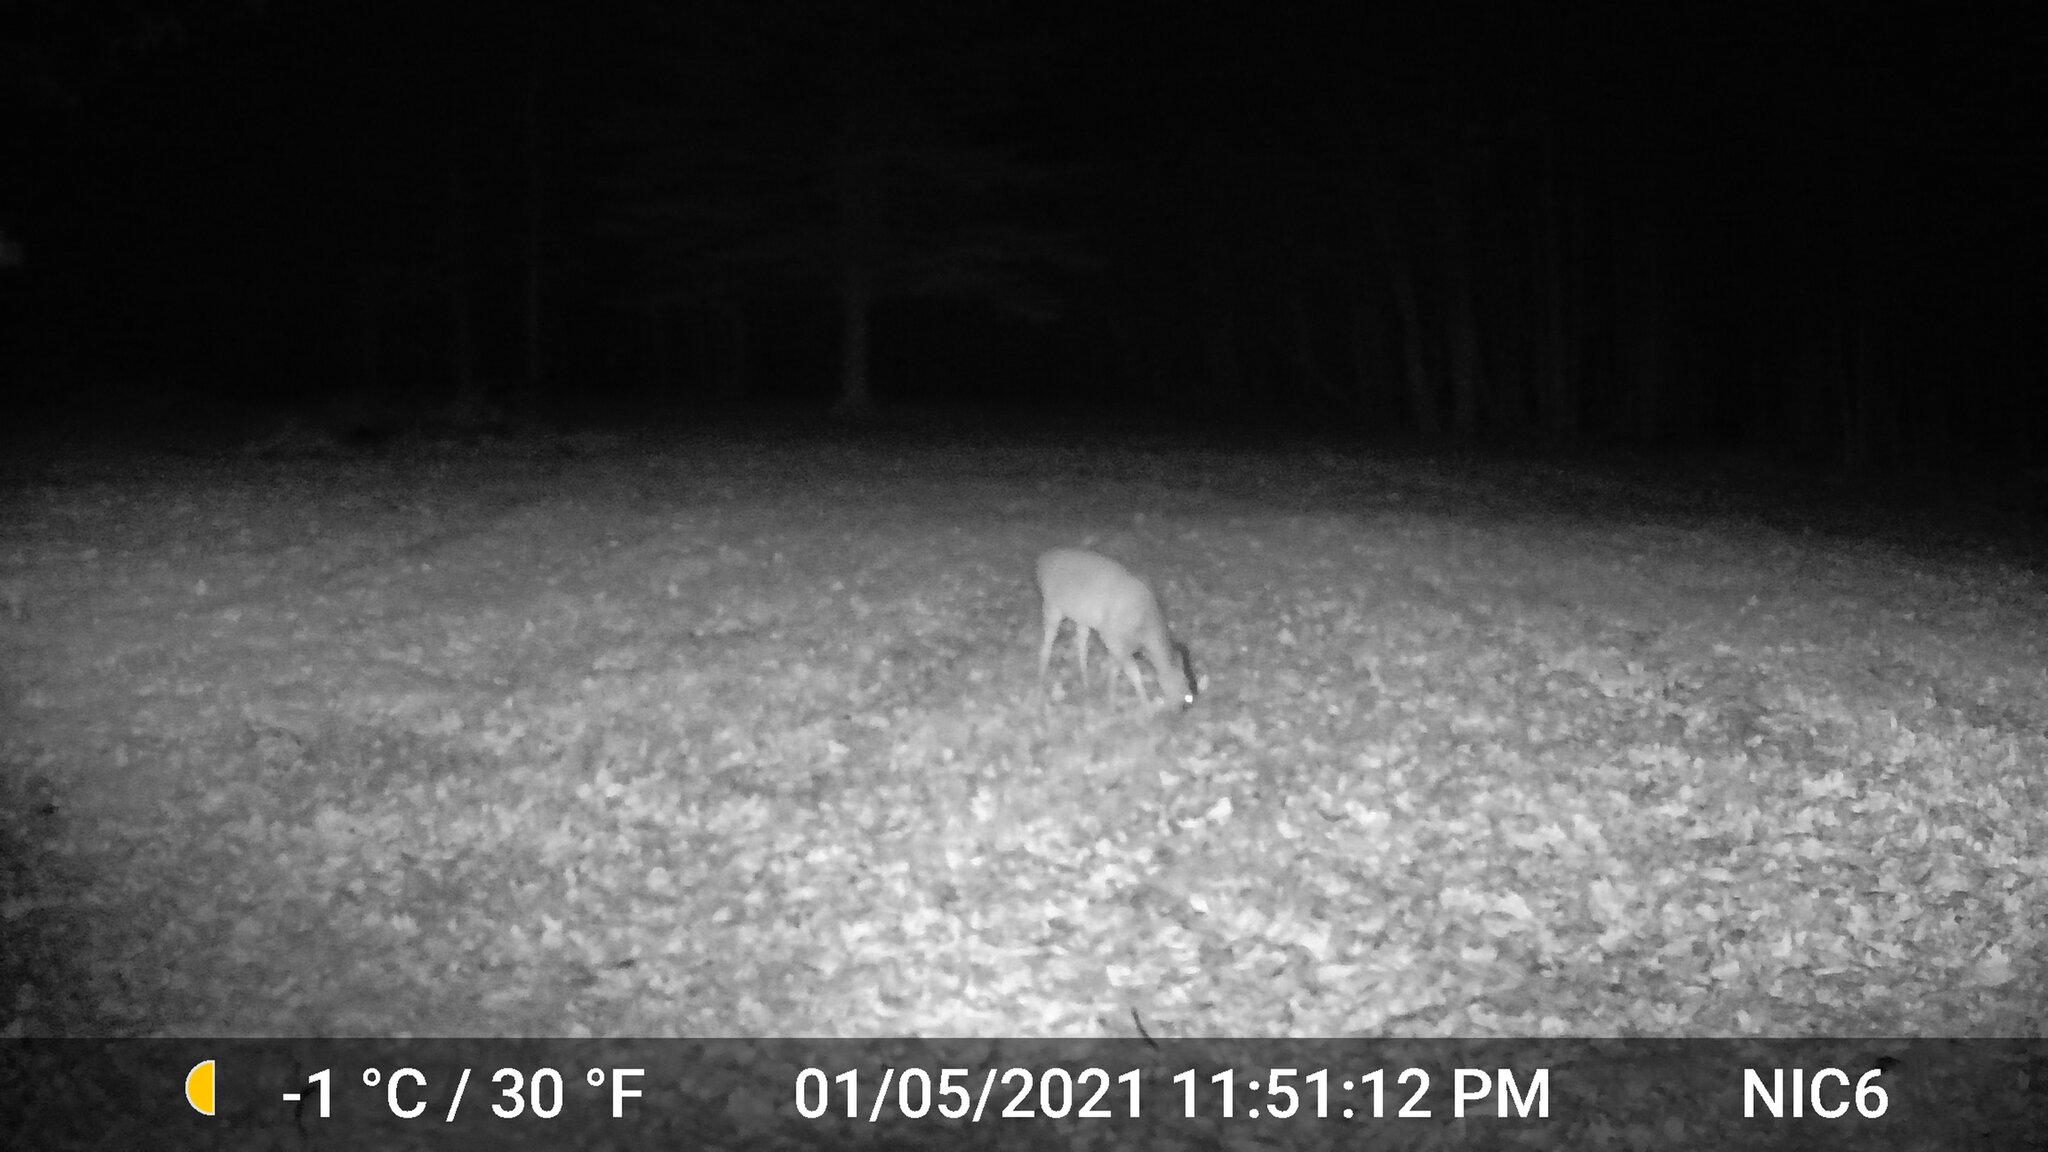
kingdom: Animalia
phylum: Chordata
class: Mammalia
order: Artiodactyla
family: Cervidae
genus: Odocoileus
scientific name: Odocoileus virginianus
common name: White-tailed deer
